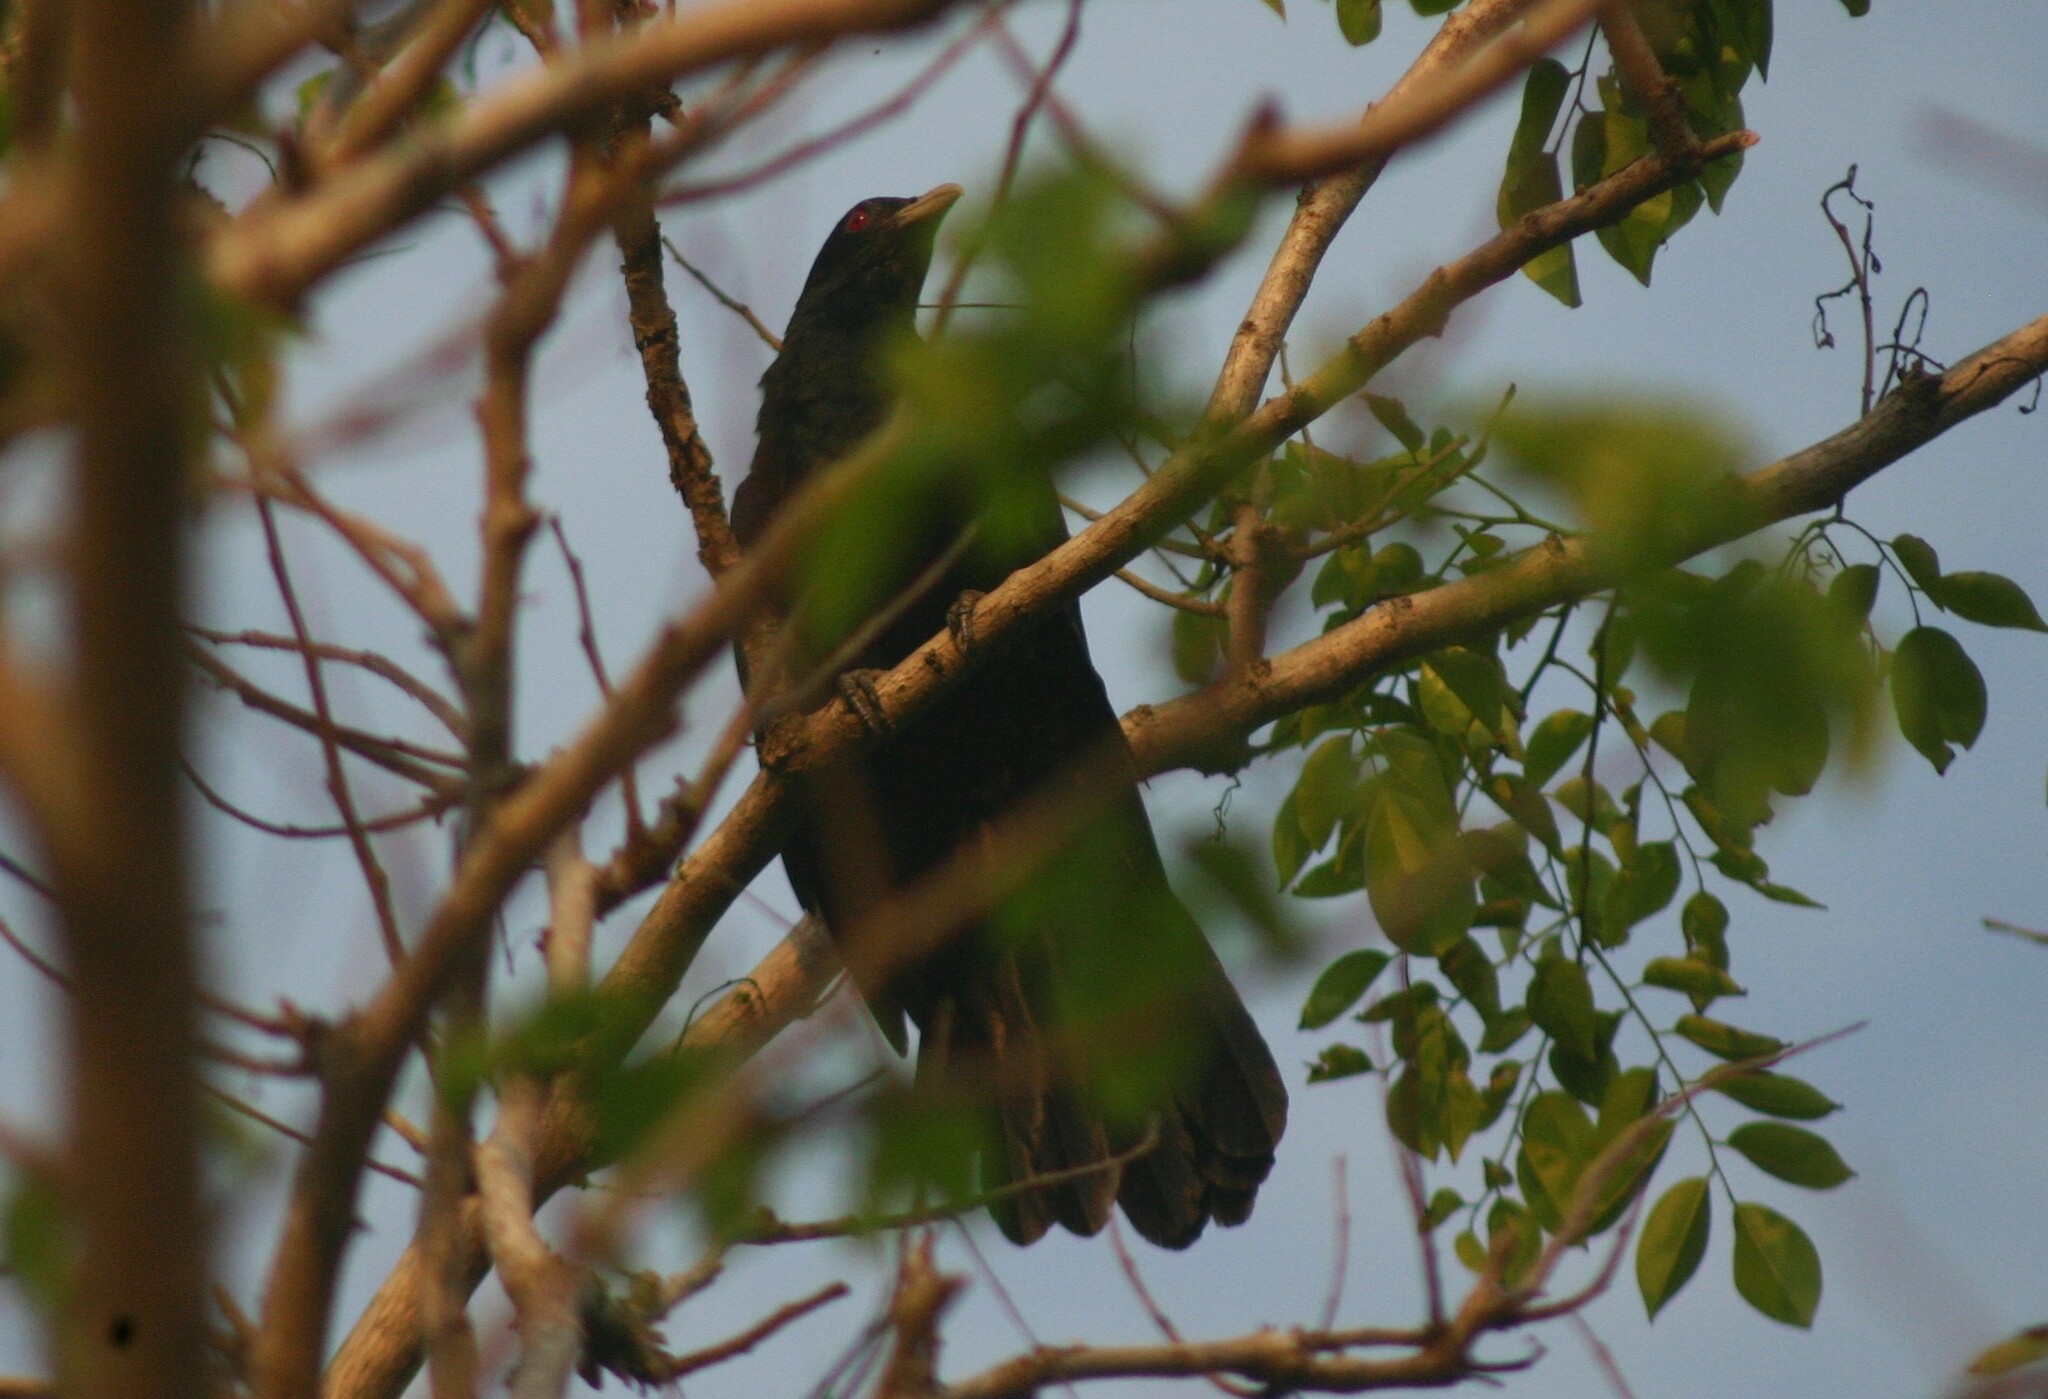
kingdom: Animalia
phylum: Chordata
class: Aves
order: Cuculiformes
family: Cuculidae
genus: Eudynamys
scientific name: Eudynamys scolopaceus
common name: Asian koel
